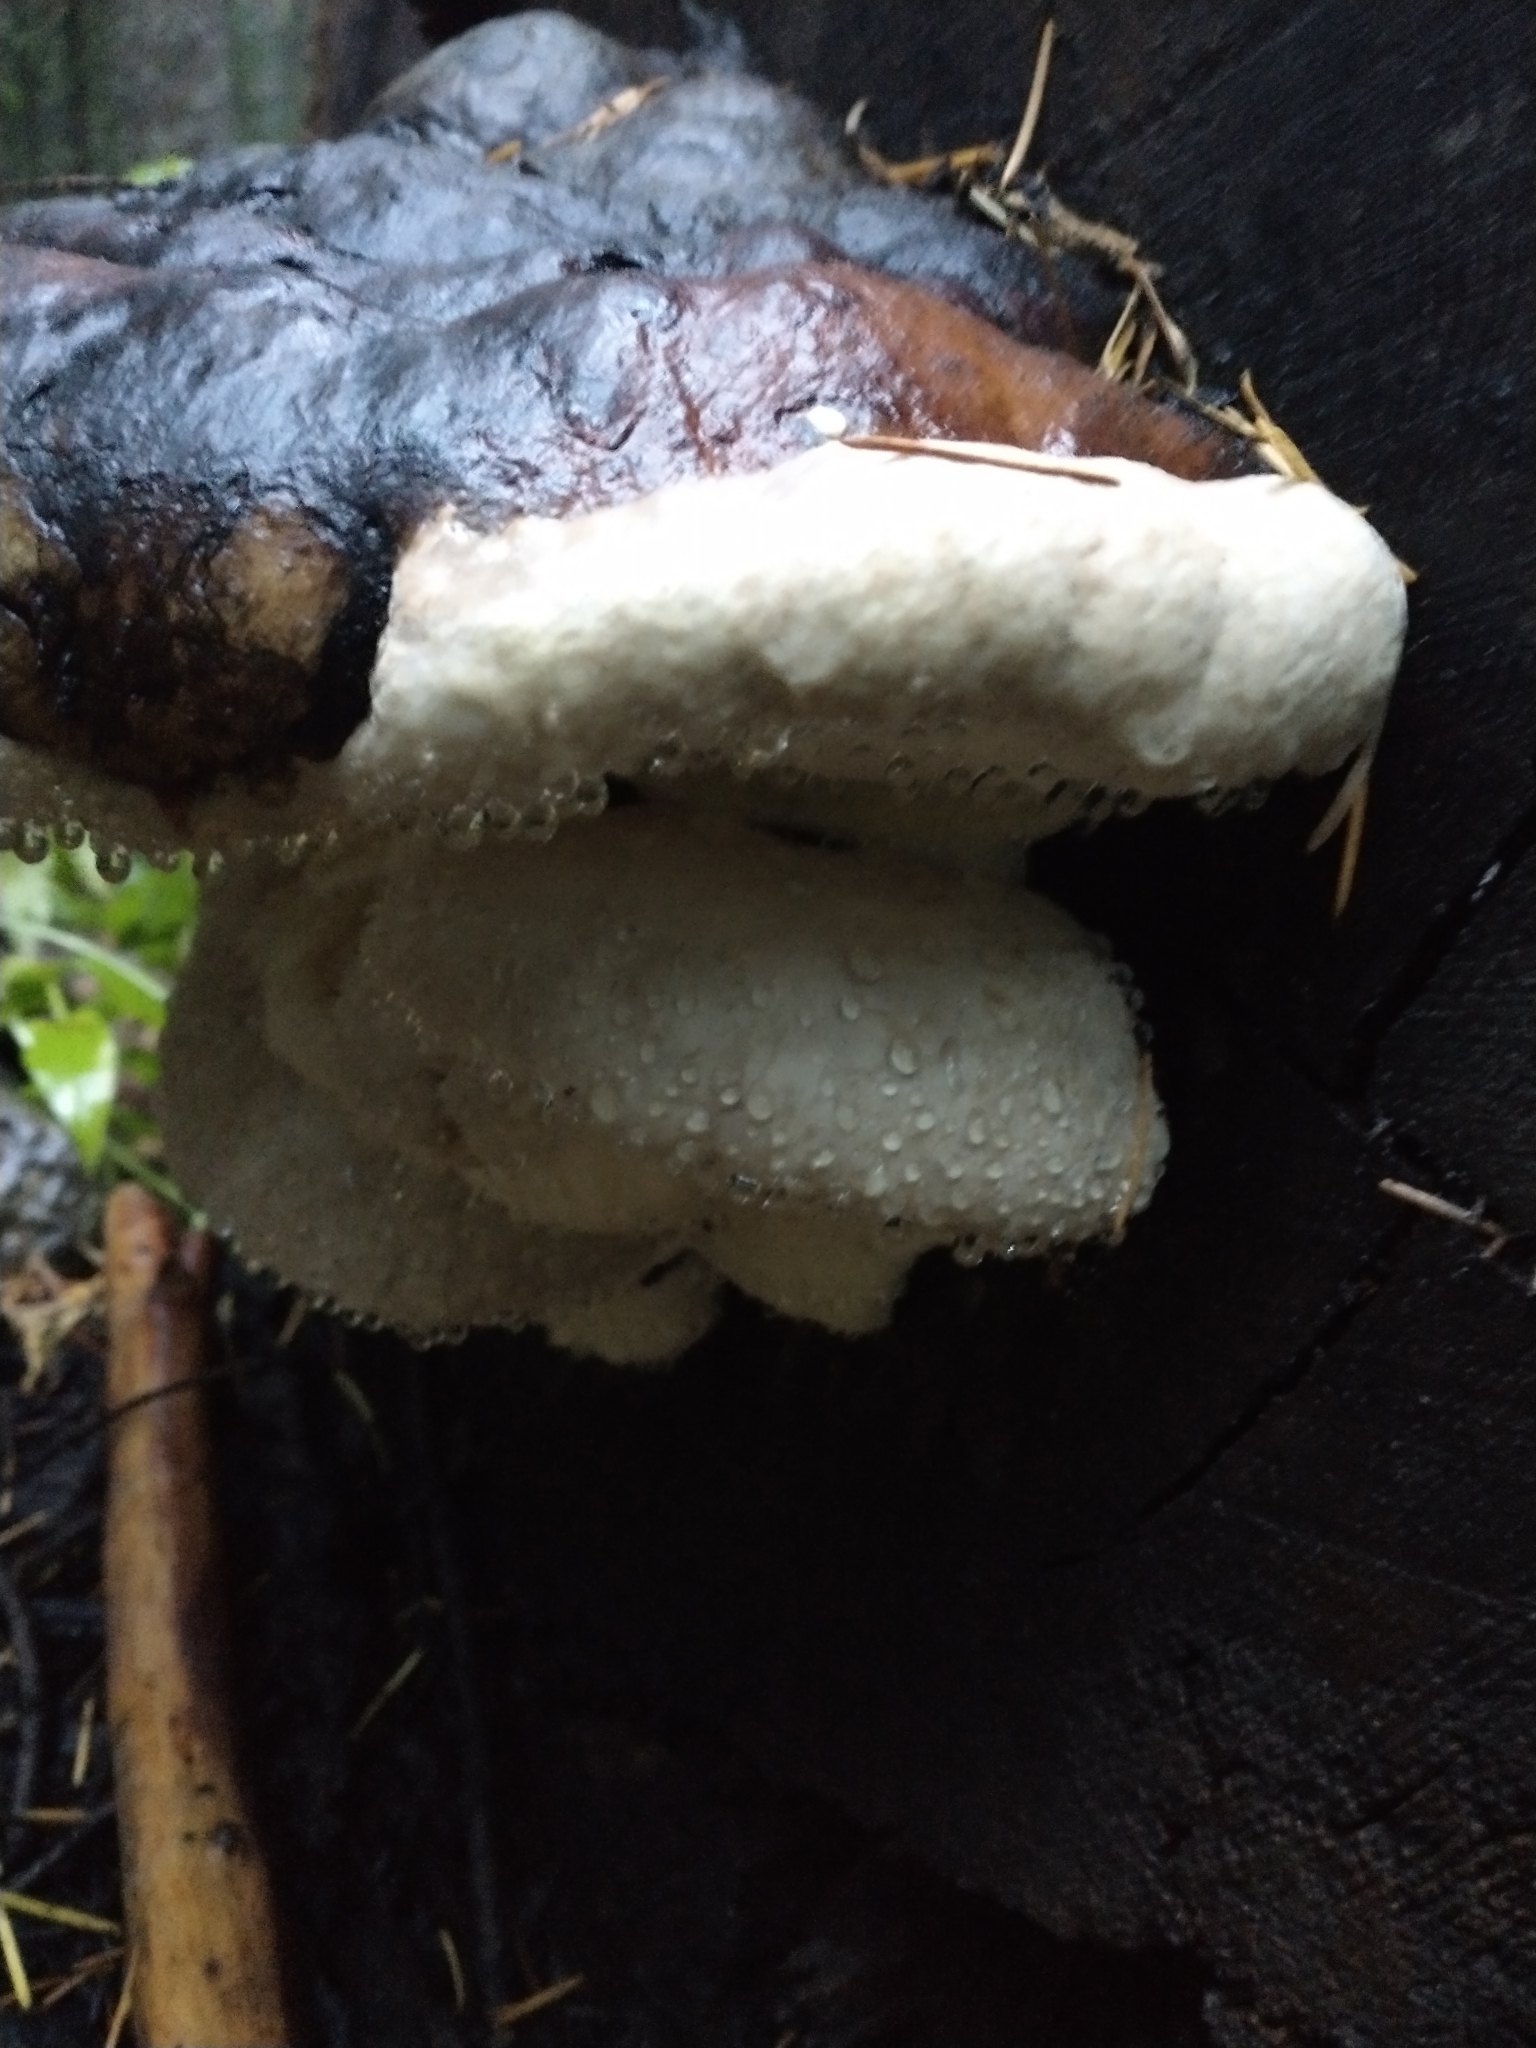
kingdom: Fungi
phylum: Basidiomycota
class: Agaricomycetes
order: Polyporales
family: Fomitopsidaceae
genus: Fomitopsis
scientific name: Fomitopsis mounceae
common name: Northern red belt
